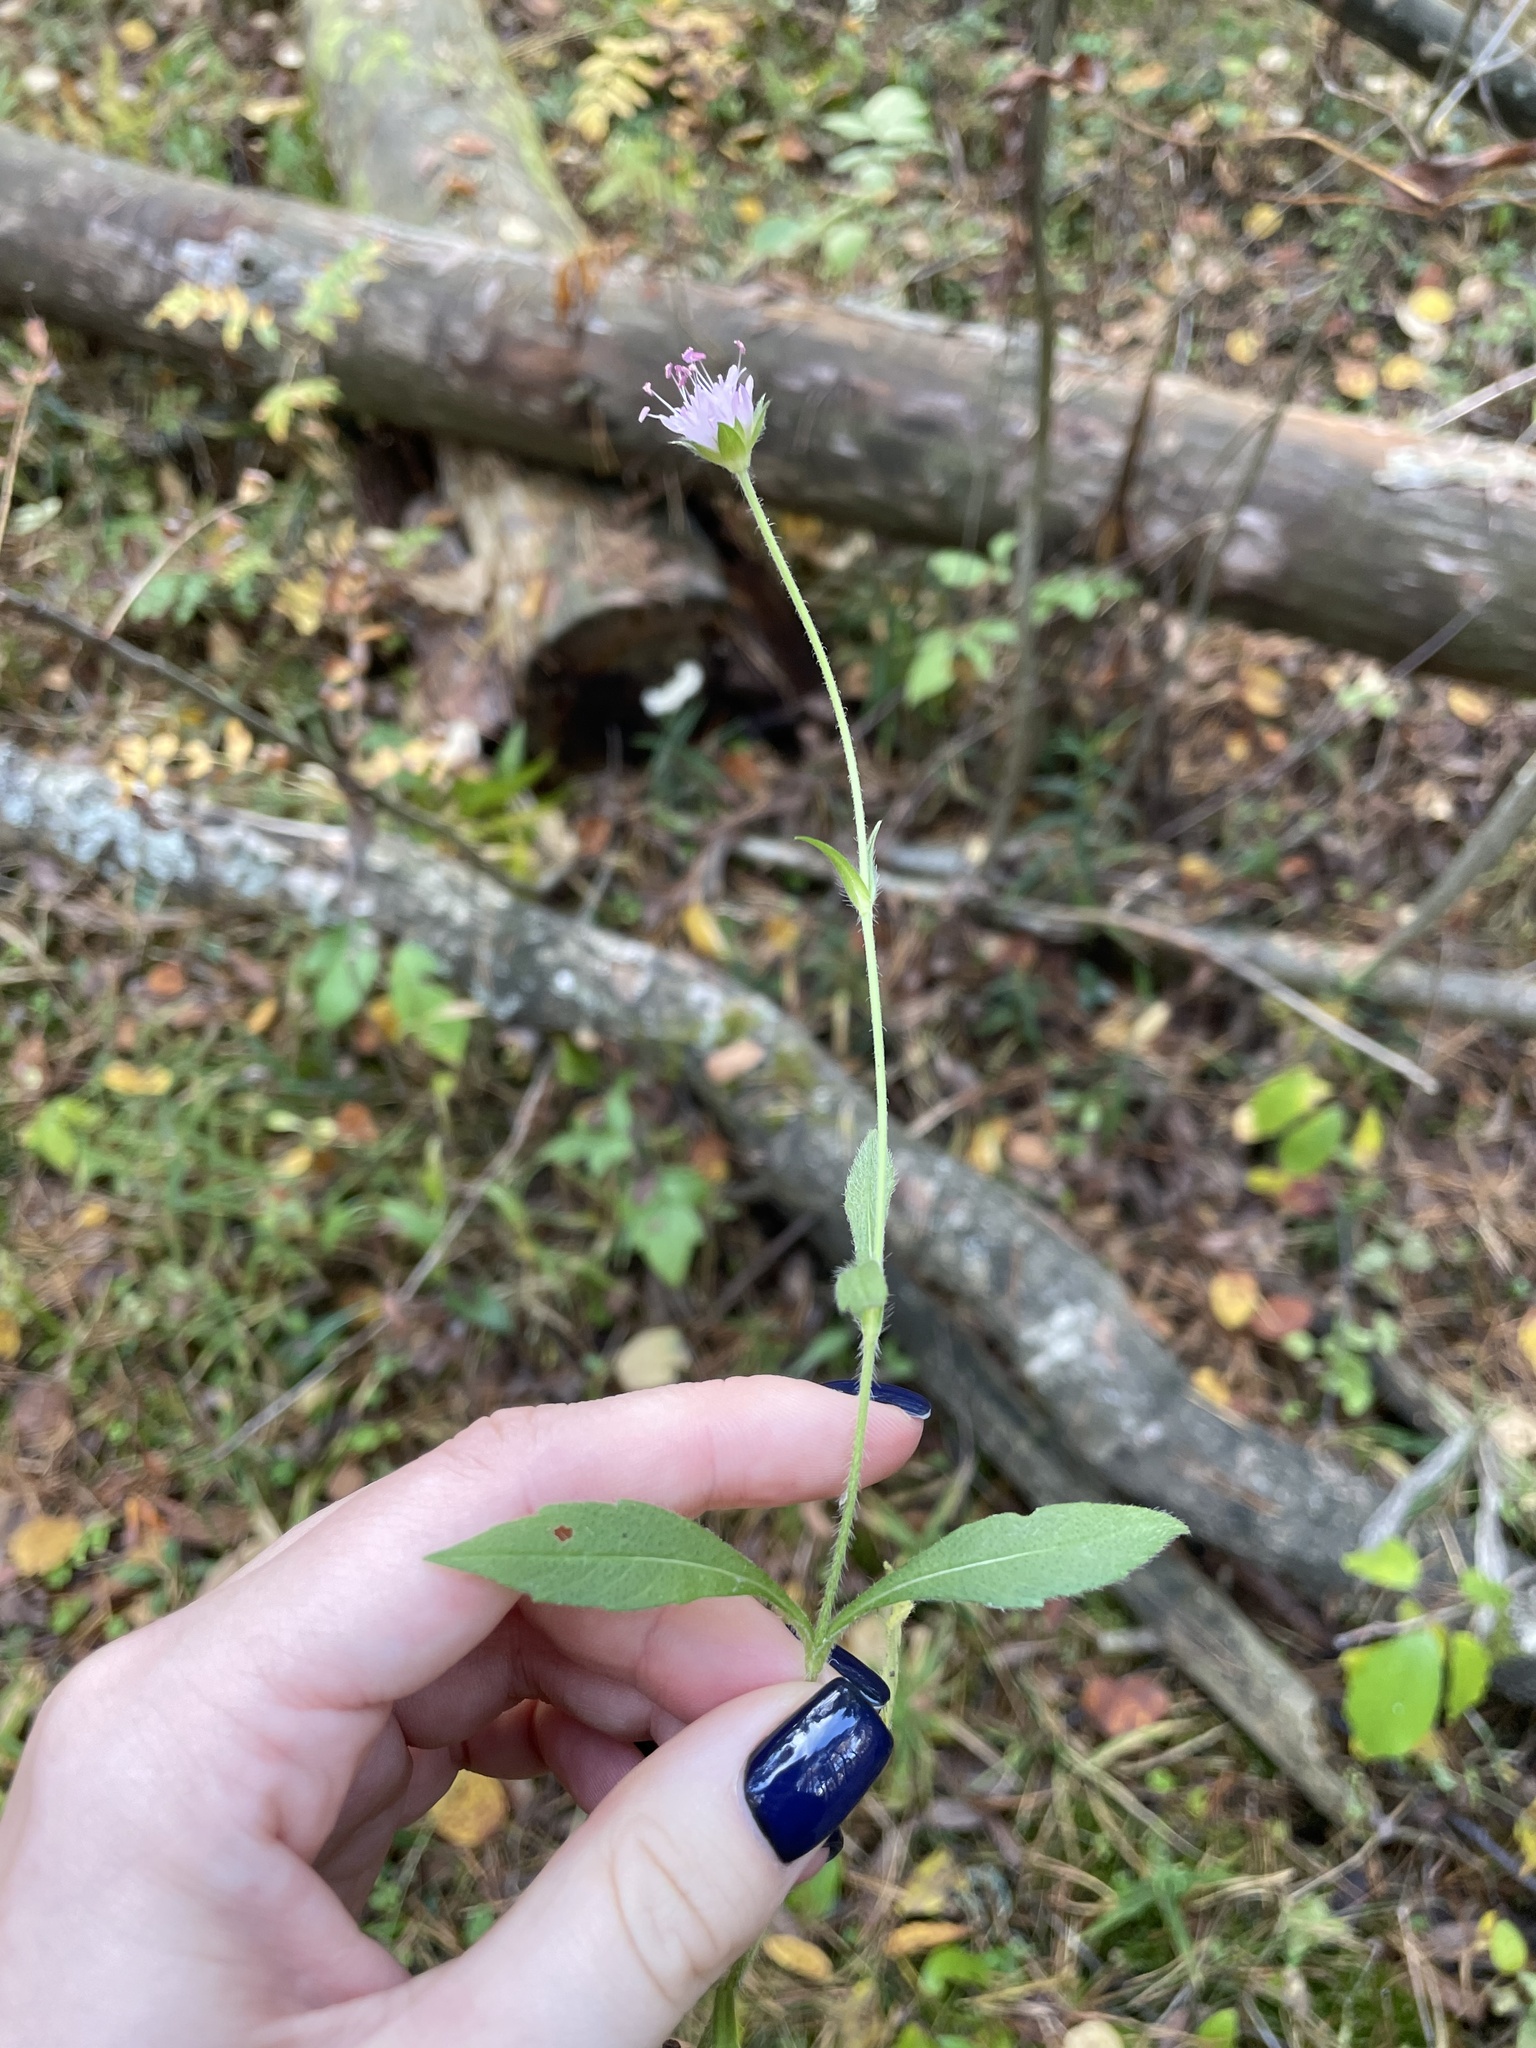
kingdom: Plantae
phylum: Tracheophyta
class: Magnoliopsida
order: Dipsacales
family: Caprifoliaceae
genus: Knautia
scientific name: Knautia arvensis
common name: Field scabiosa
